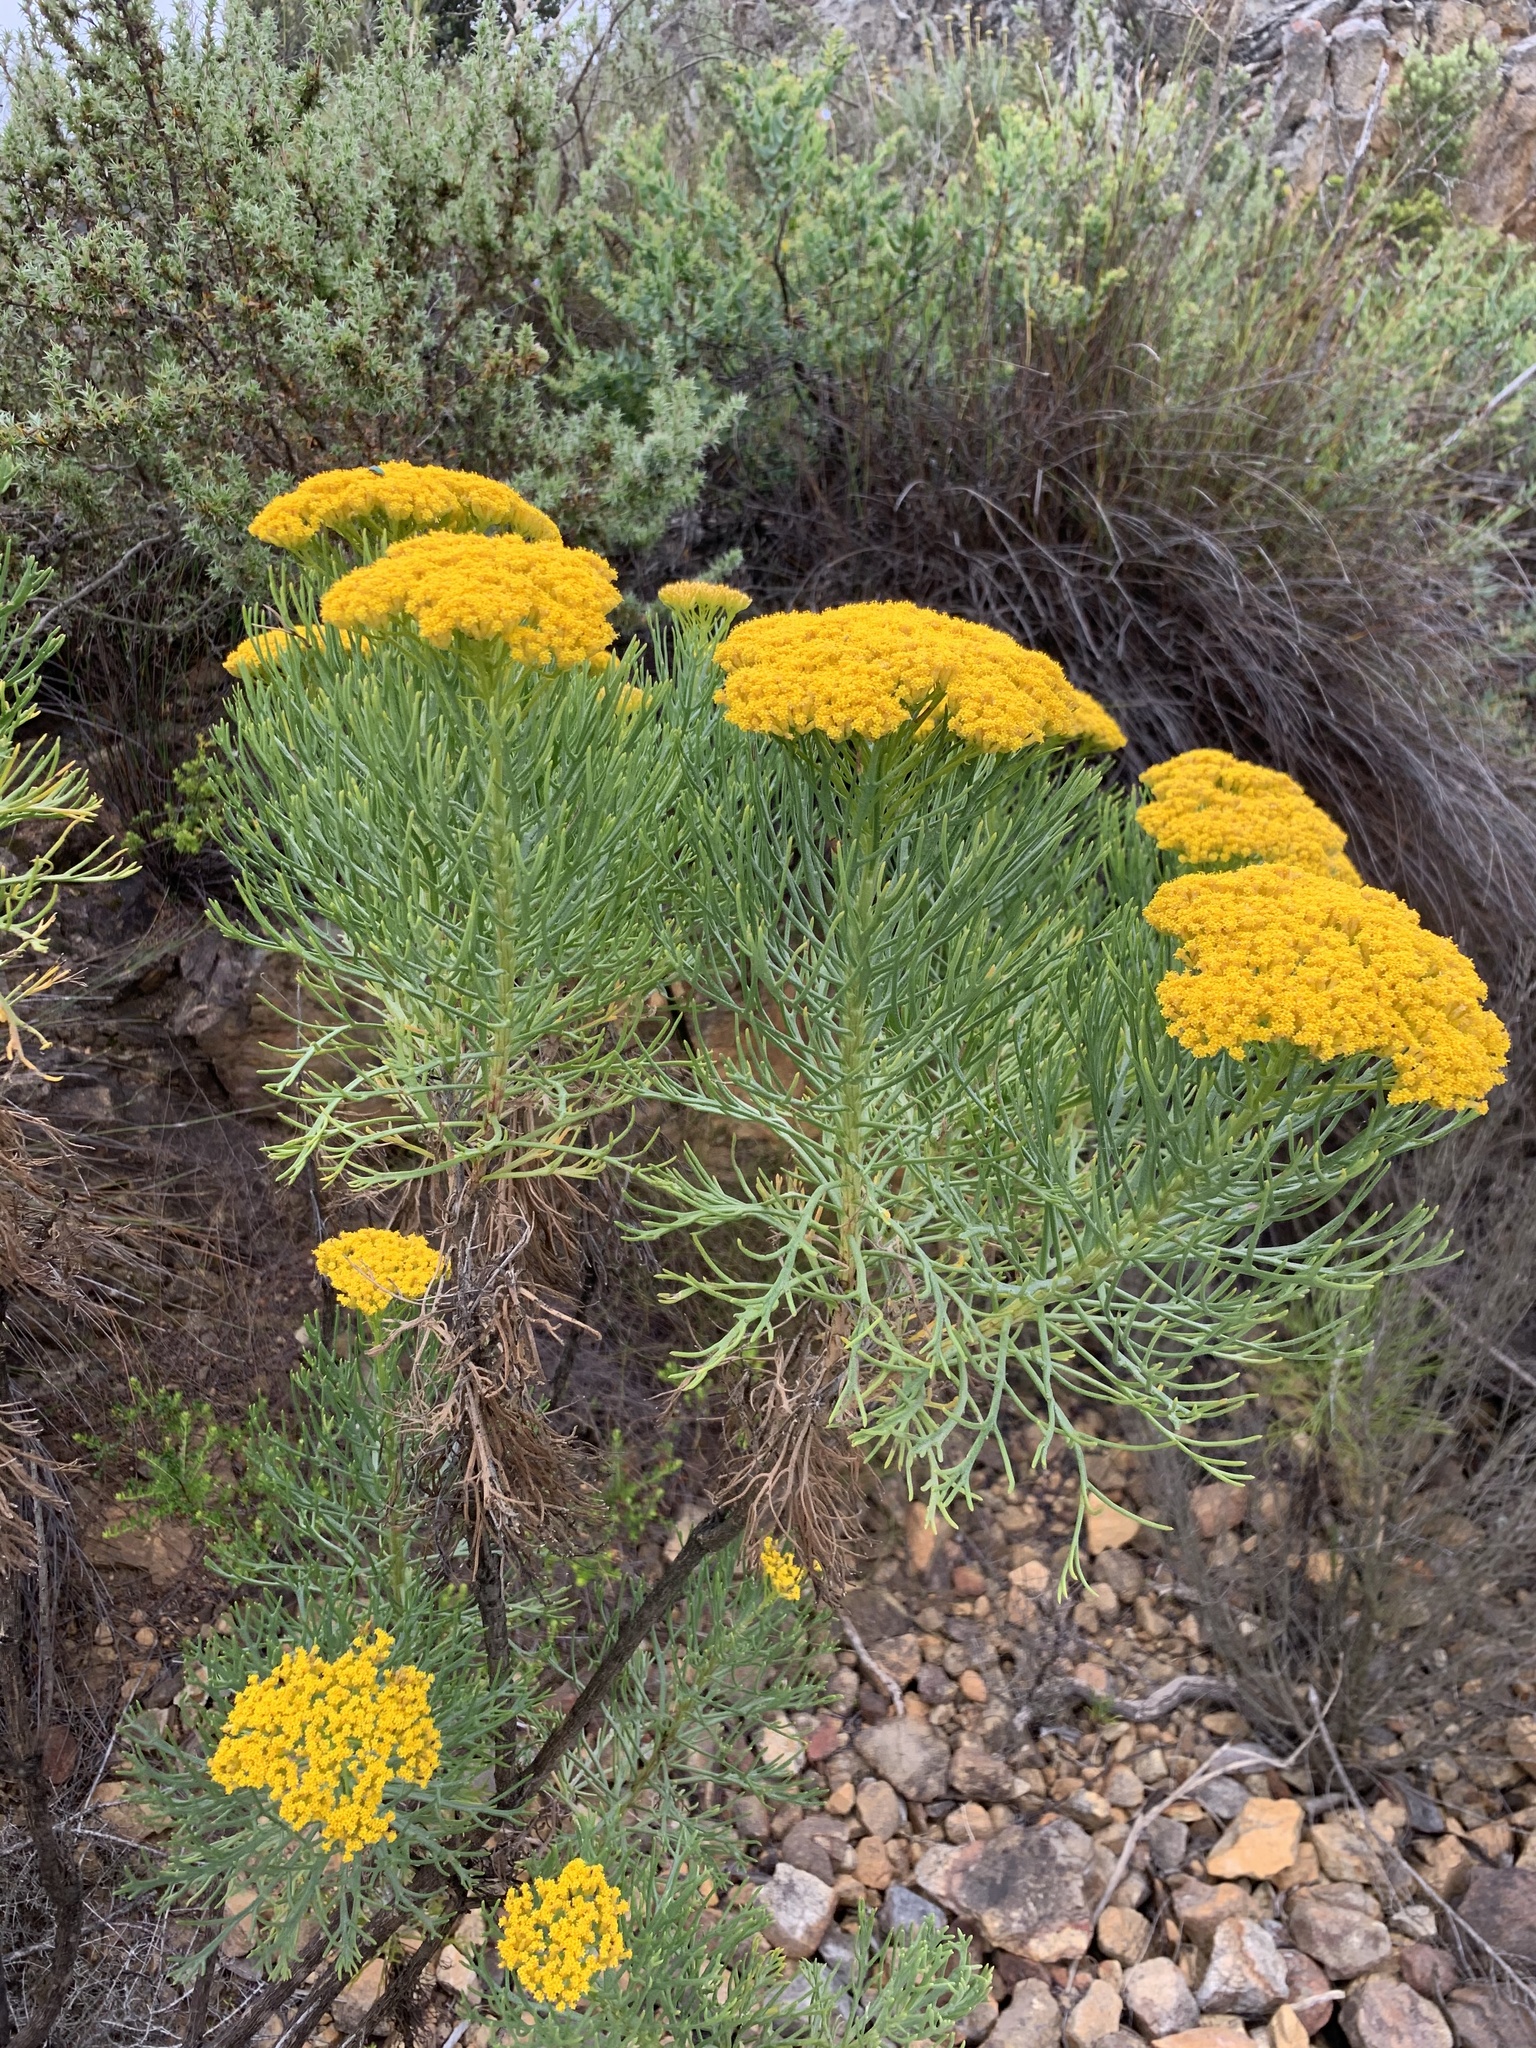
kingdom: Plantae
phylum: Tracheophyta
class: Magnoliopsida
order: Asterales
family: Asteraceae
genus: Hymenolepis
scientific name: Hymenolepis crithmifolia
